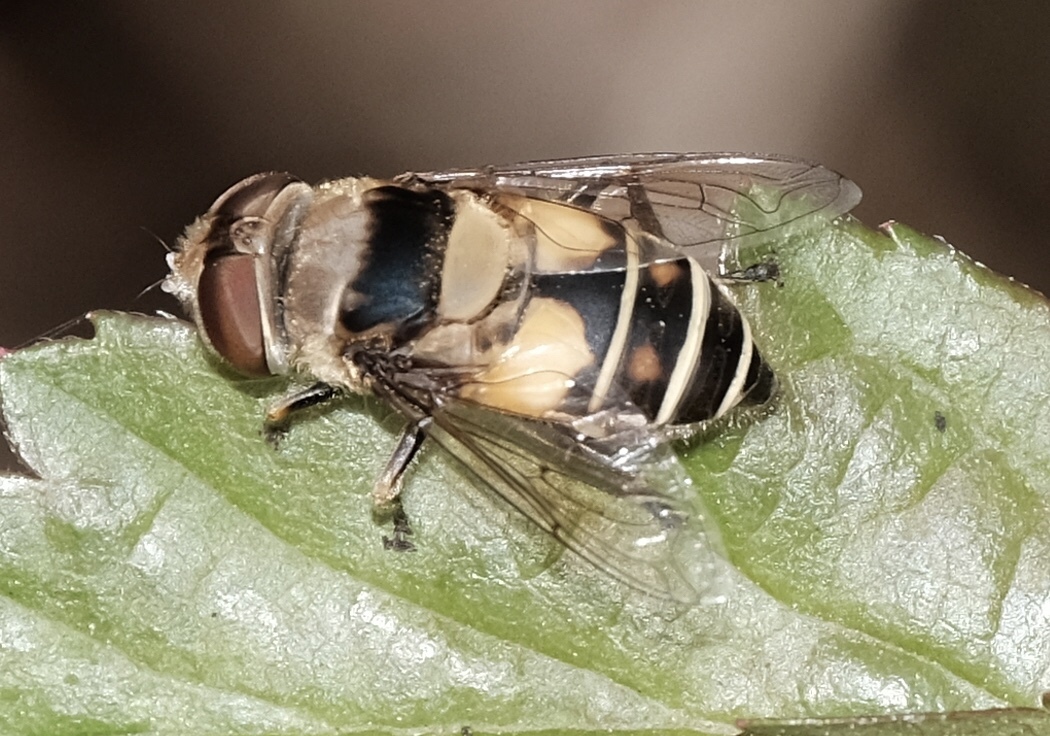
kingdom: Animalia
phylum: Arthropoda
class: Insecta
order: Diptera
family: Syrphidae
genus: Palpada
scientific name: Palpada pusilla
